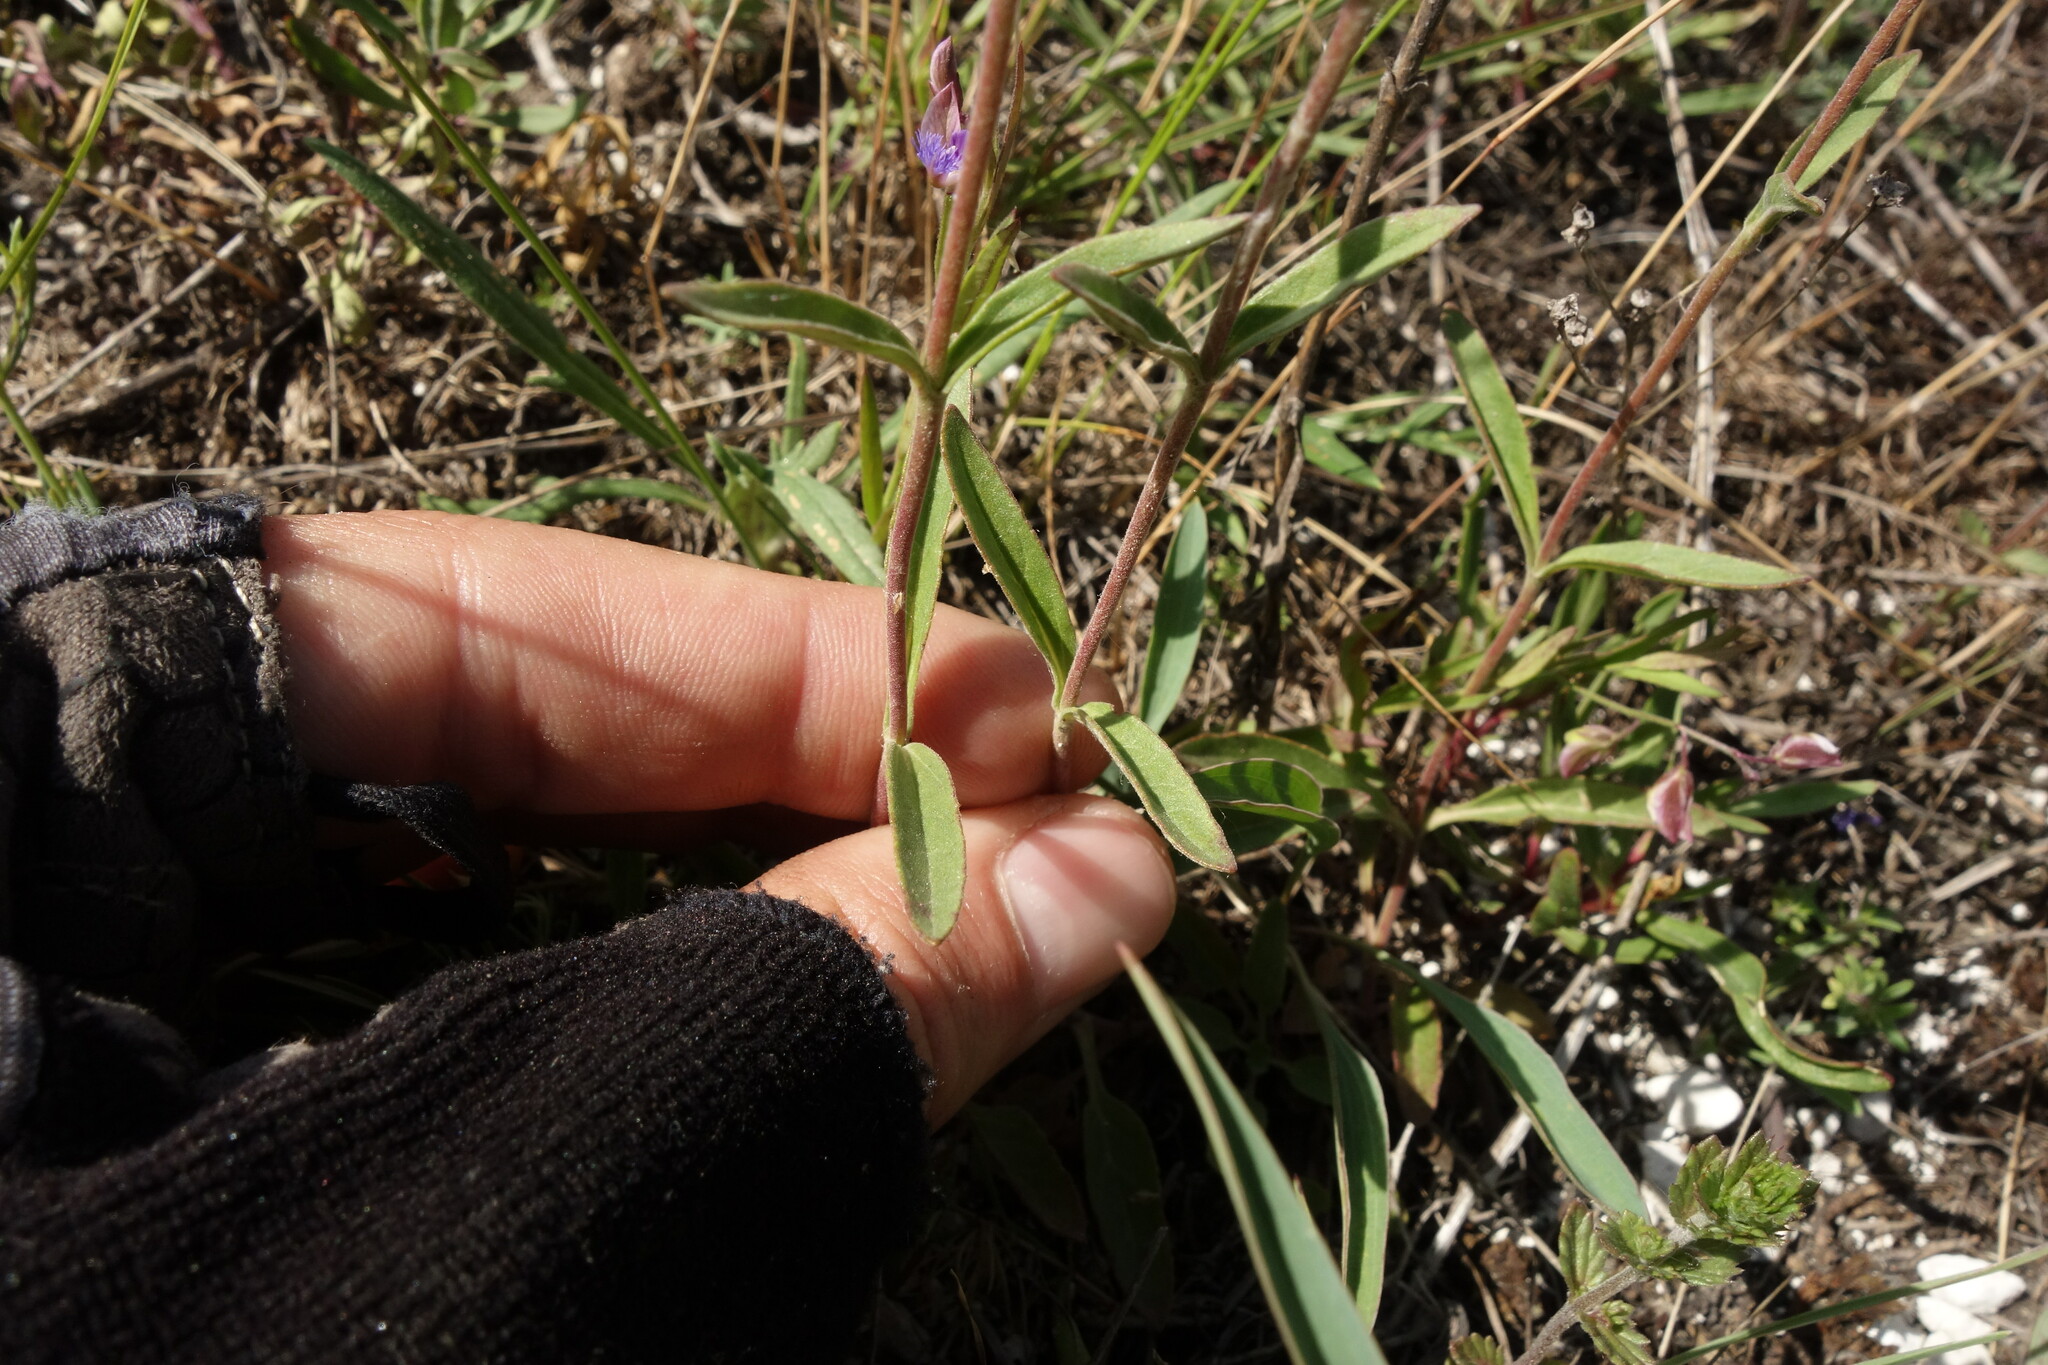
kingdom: Plantae
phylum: Tracheophyta
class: Magnoliopsida
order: Lamiales
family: Plantaginaceae
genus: Veronica
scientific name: Veronica spicata
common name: Spiked speedwell
